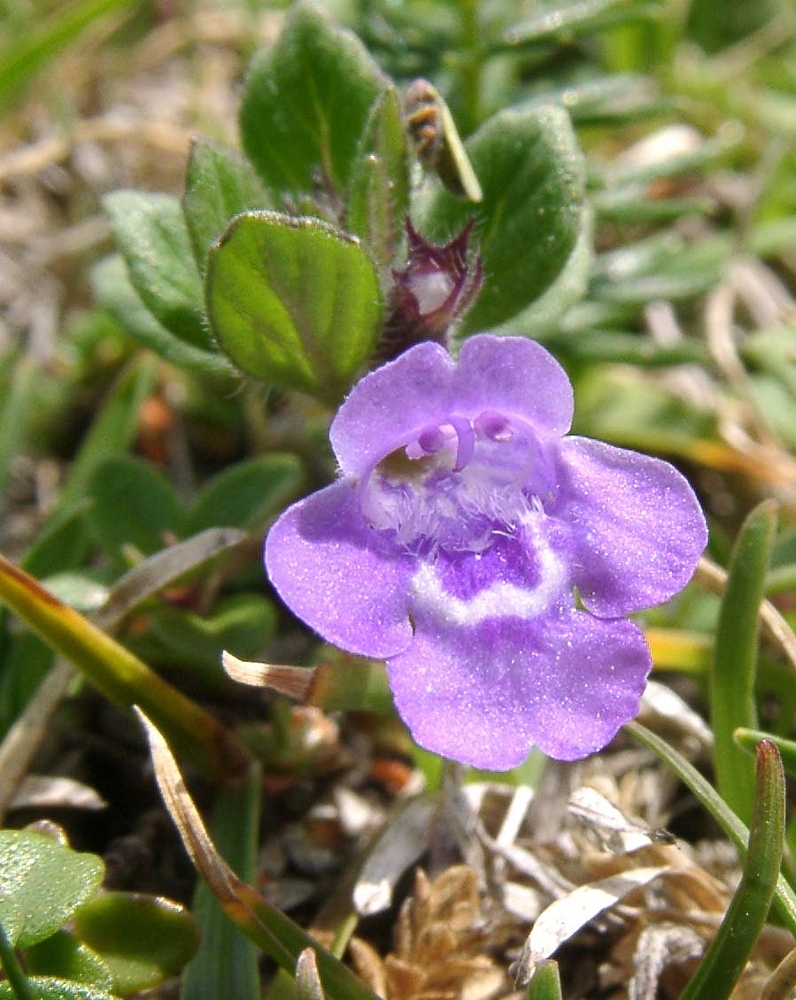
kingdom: Plantae
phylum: Tracheophyta
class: Magnoliopsida
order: Lamiales
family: Lamiaceae
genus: Clinopodium
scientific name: Clinopodium alpinum
